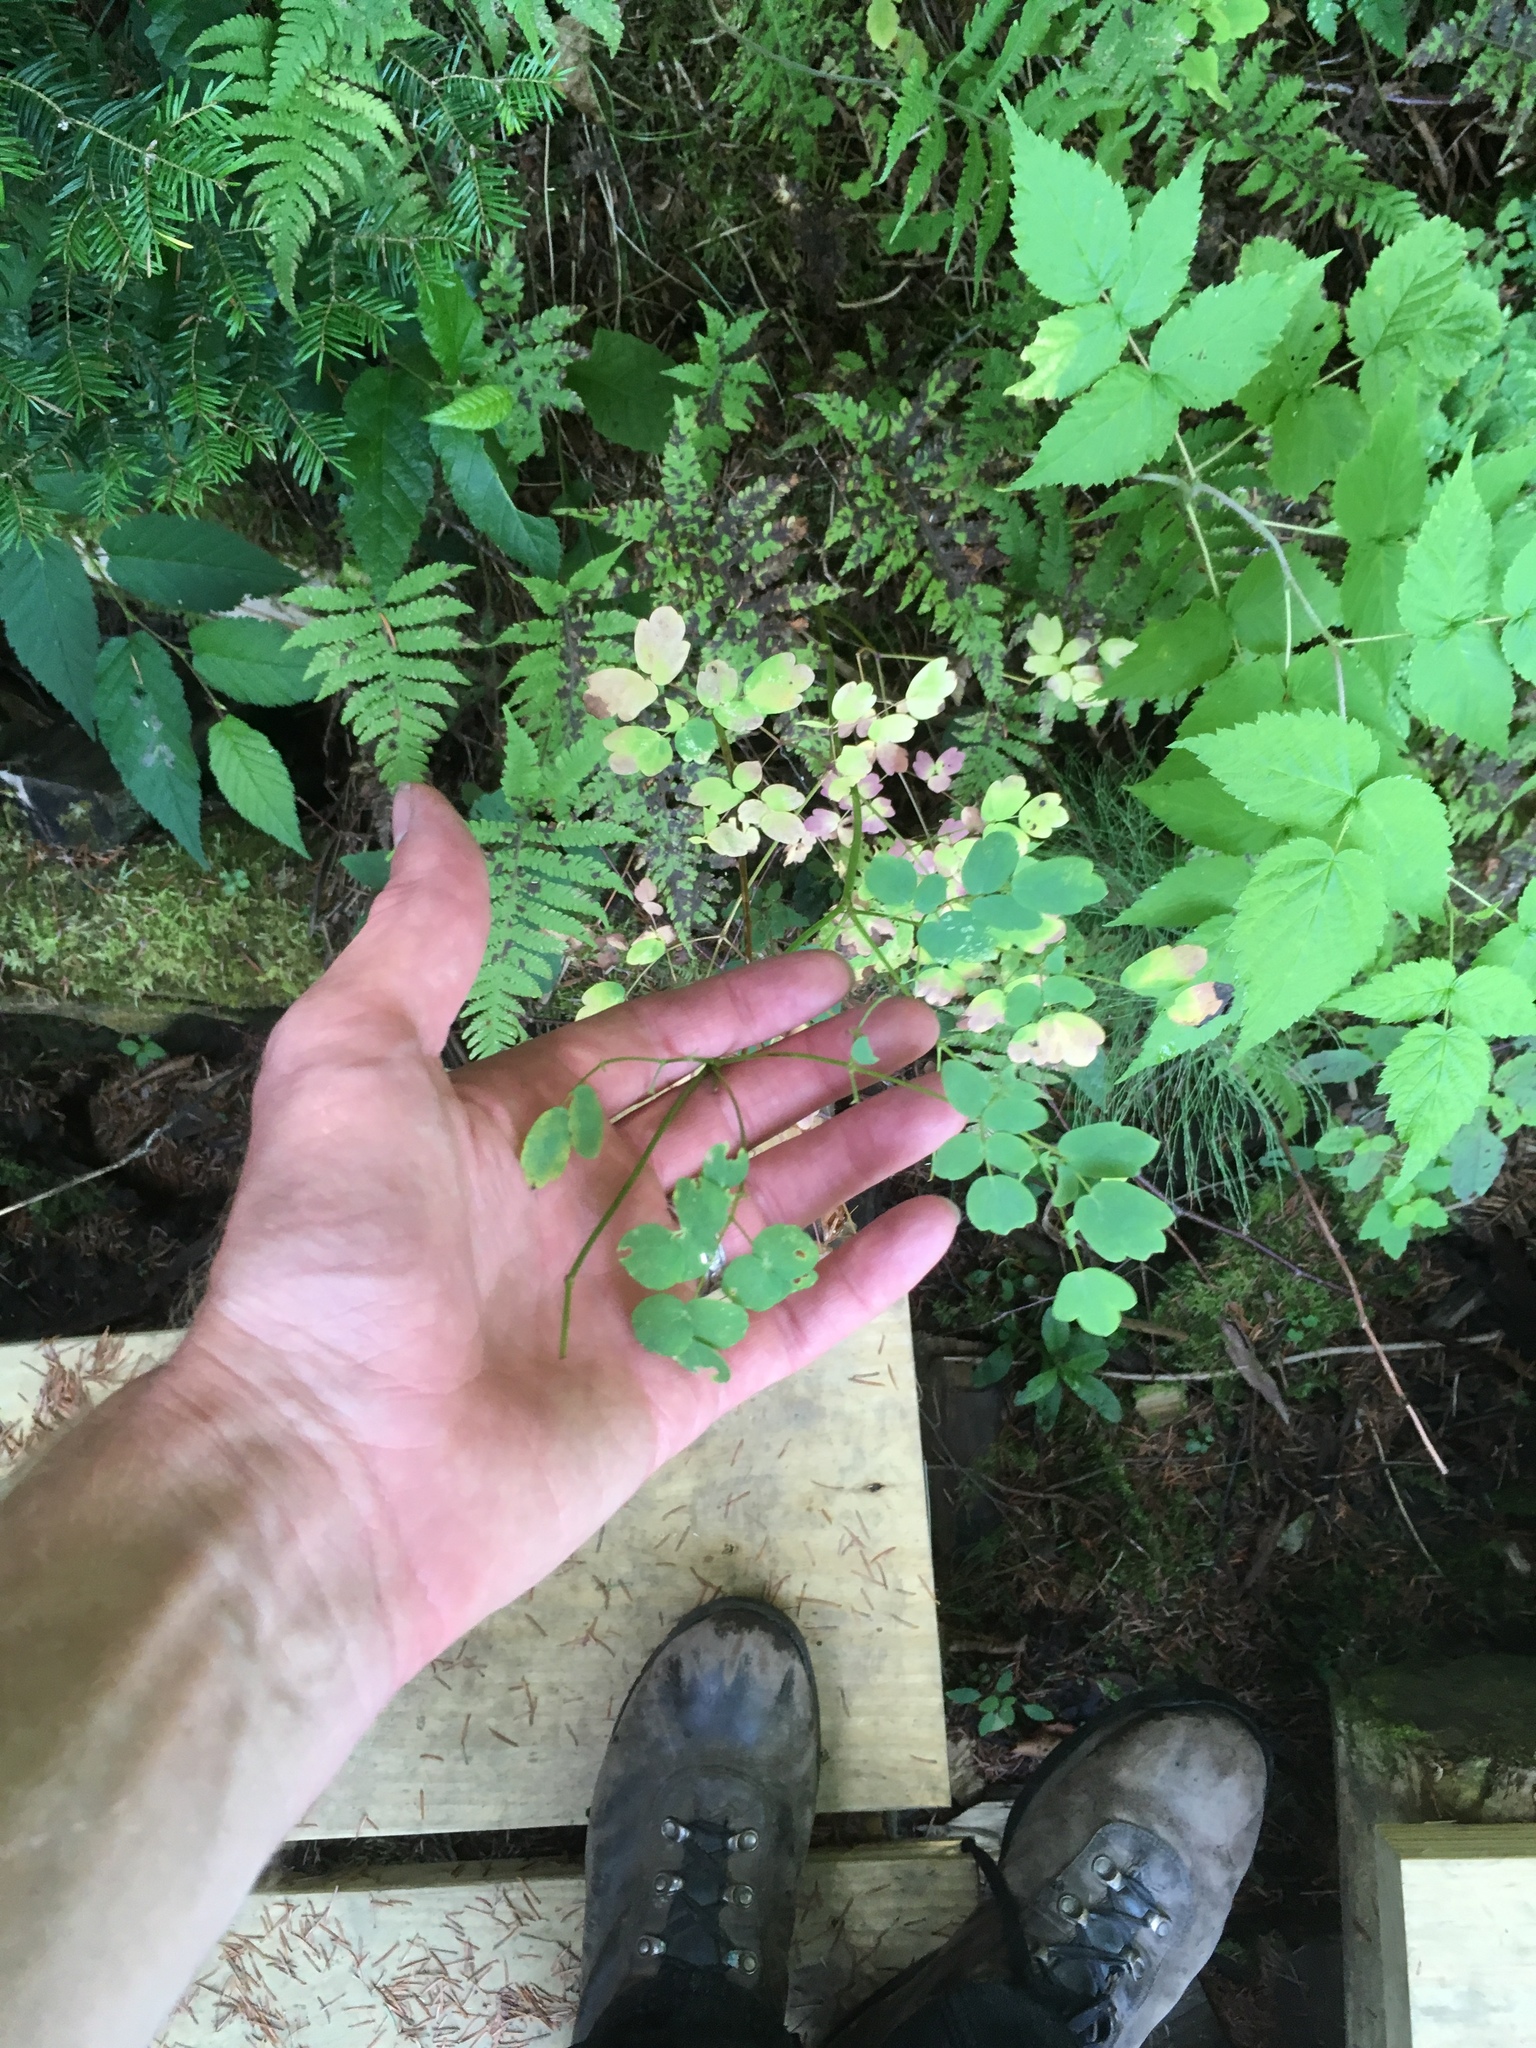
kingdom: Plantae
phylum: Tracheophyta
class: Magnoliopsida
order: Ranunculales
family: Ranunculaceae
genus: Thalictrum
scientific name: Thalictrum pubescens
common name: King-of-the-meadow
